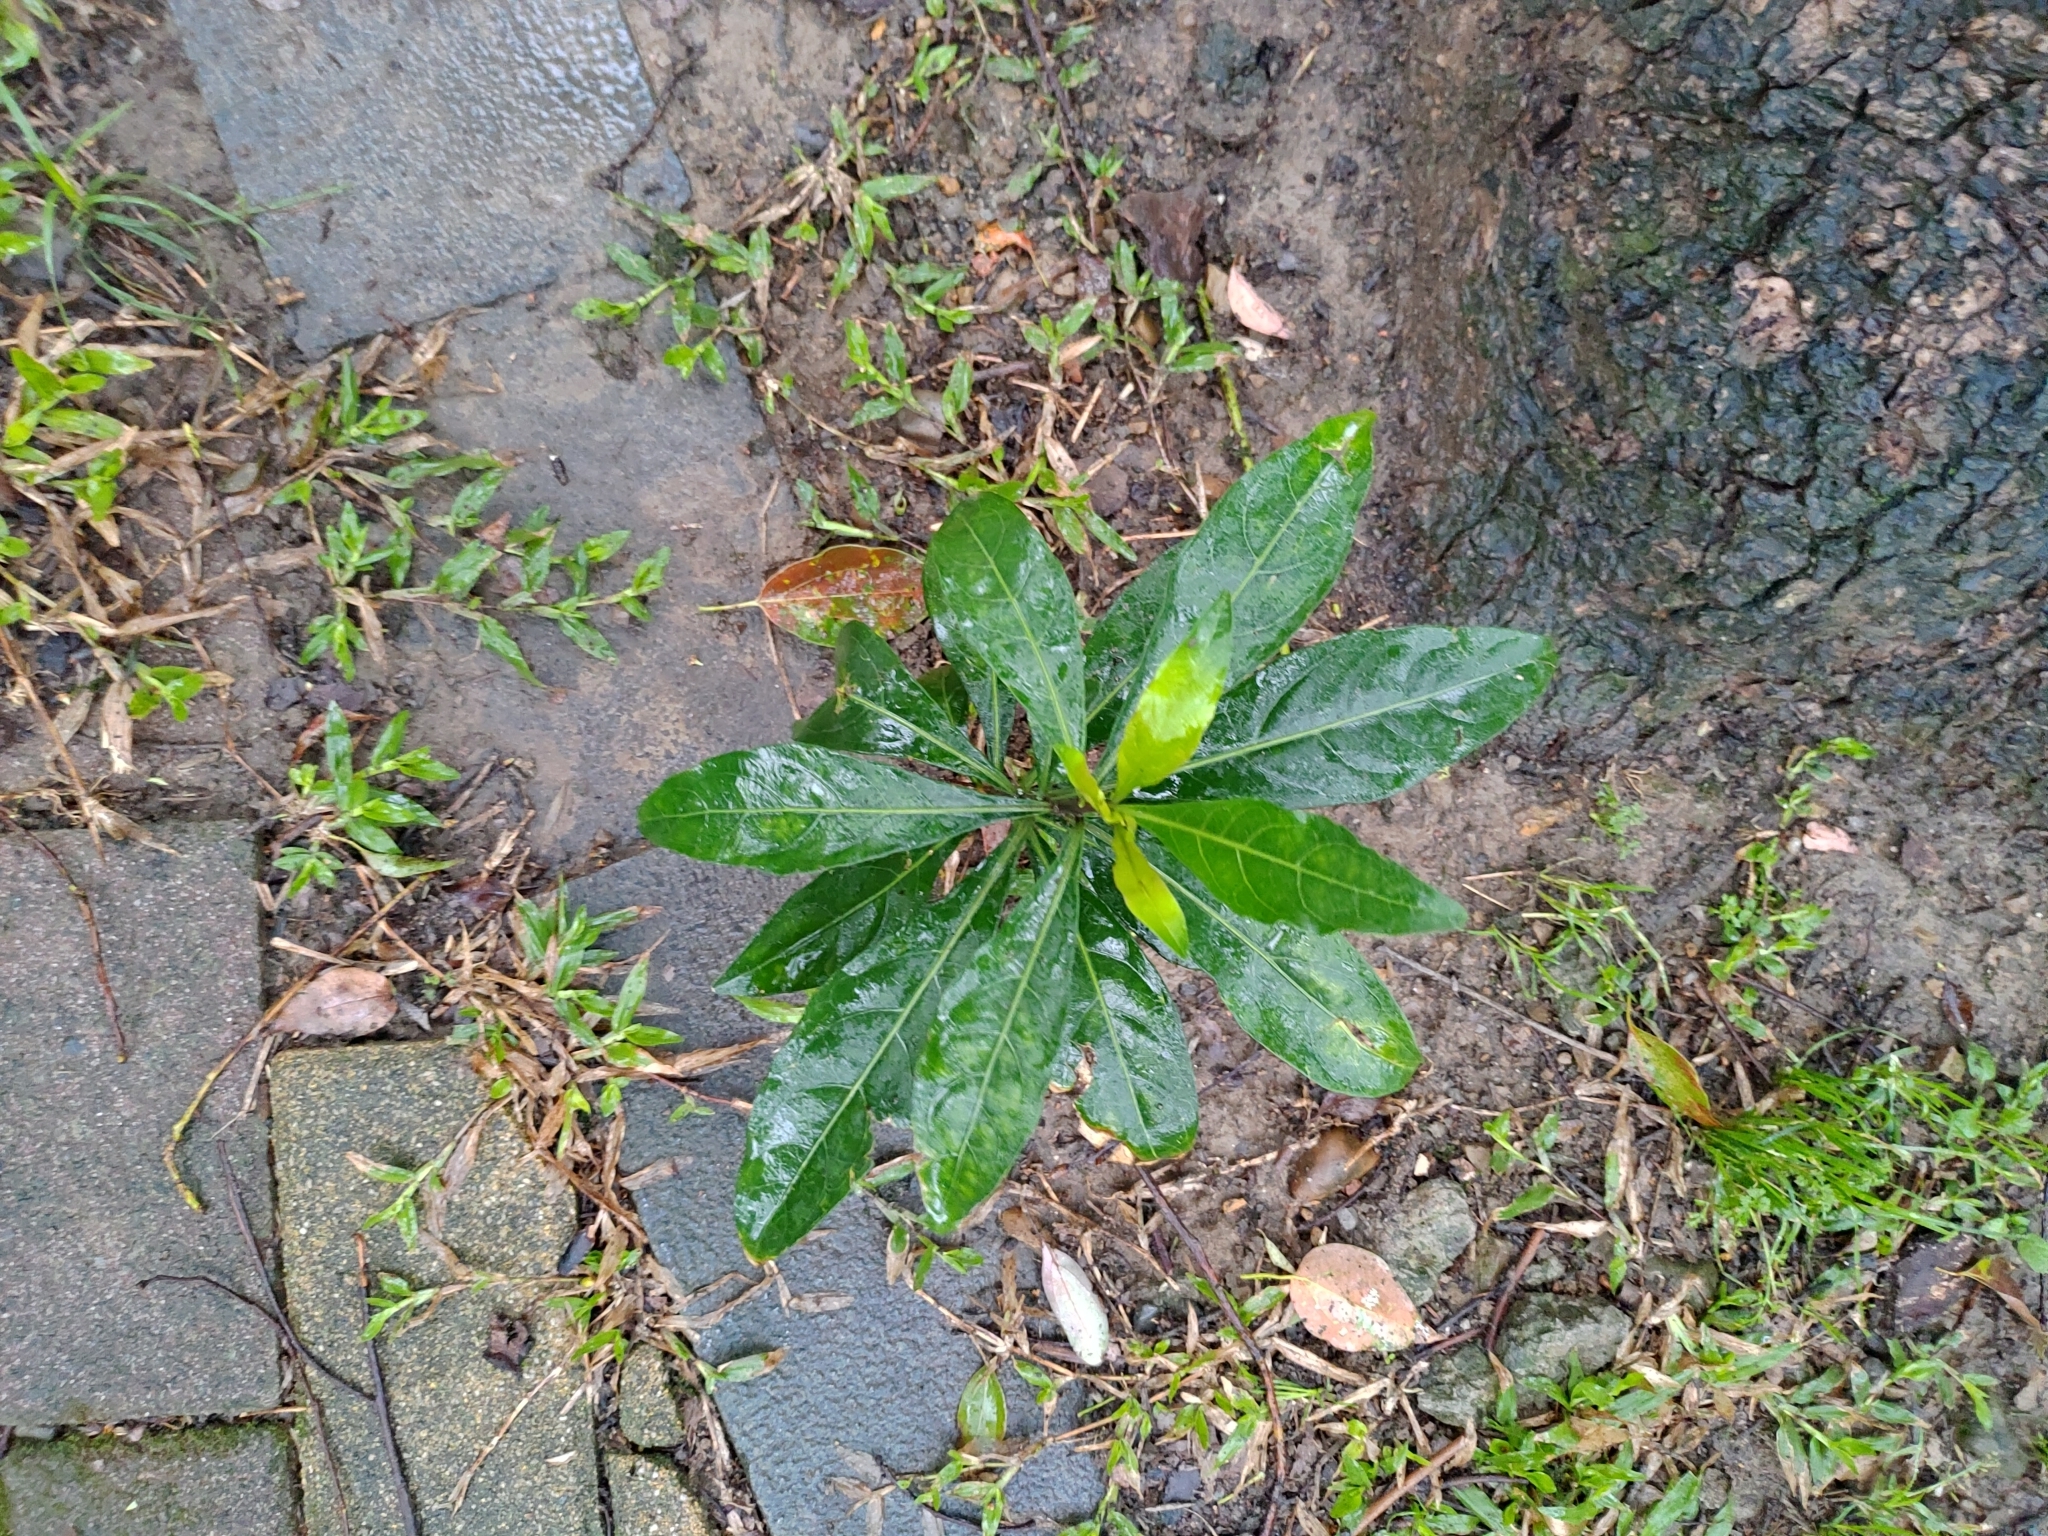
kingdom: Plantae
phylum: Tracheophyta
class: Magnoliopsida
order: Solanales
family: Solanaceae
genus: Solanum
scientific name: Solanum diphyllum
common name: Twoleaf nightshade
